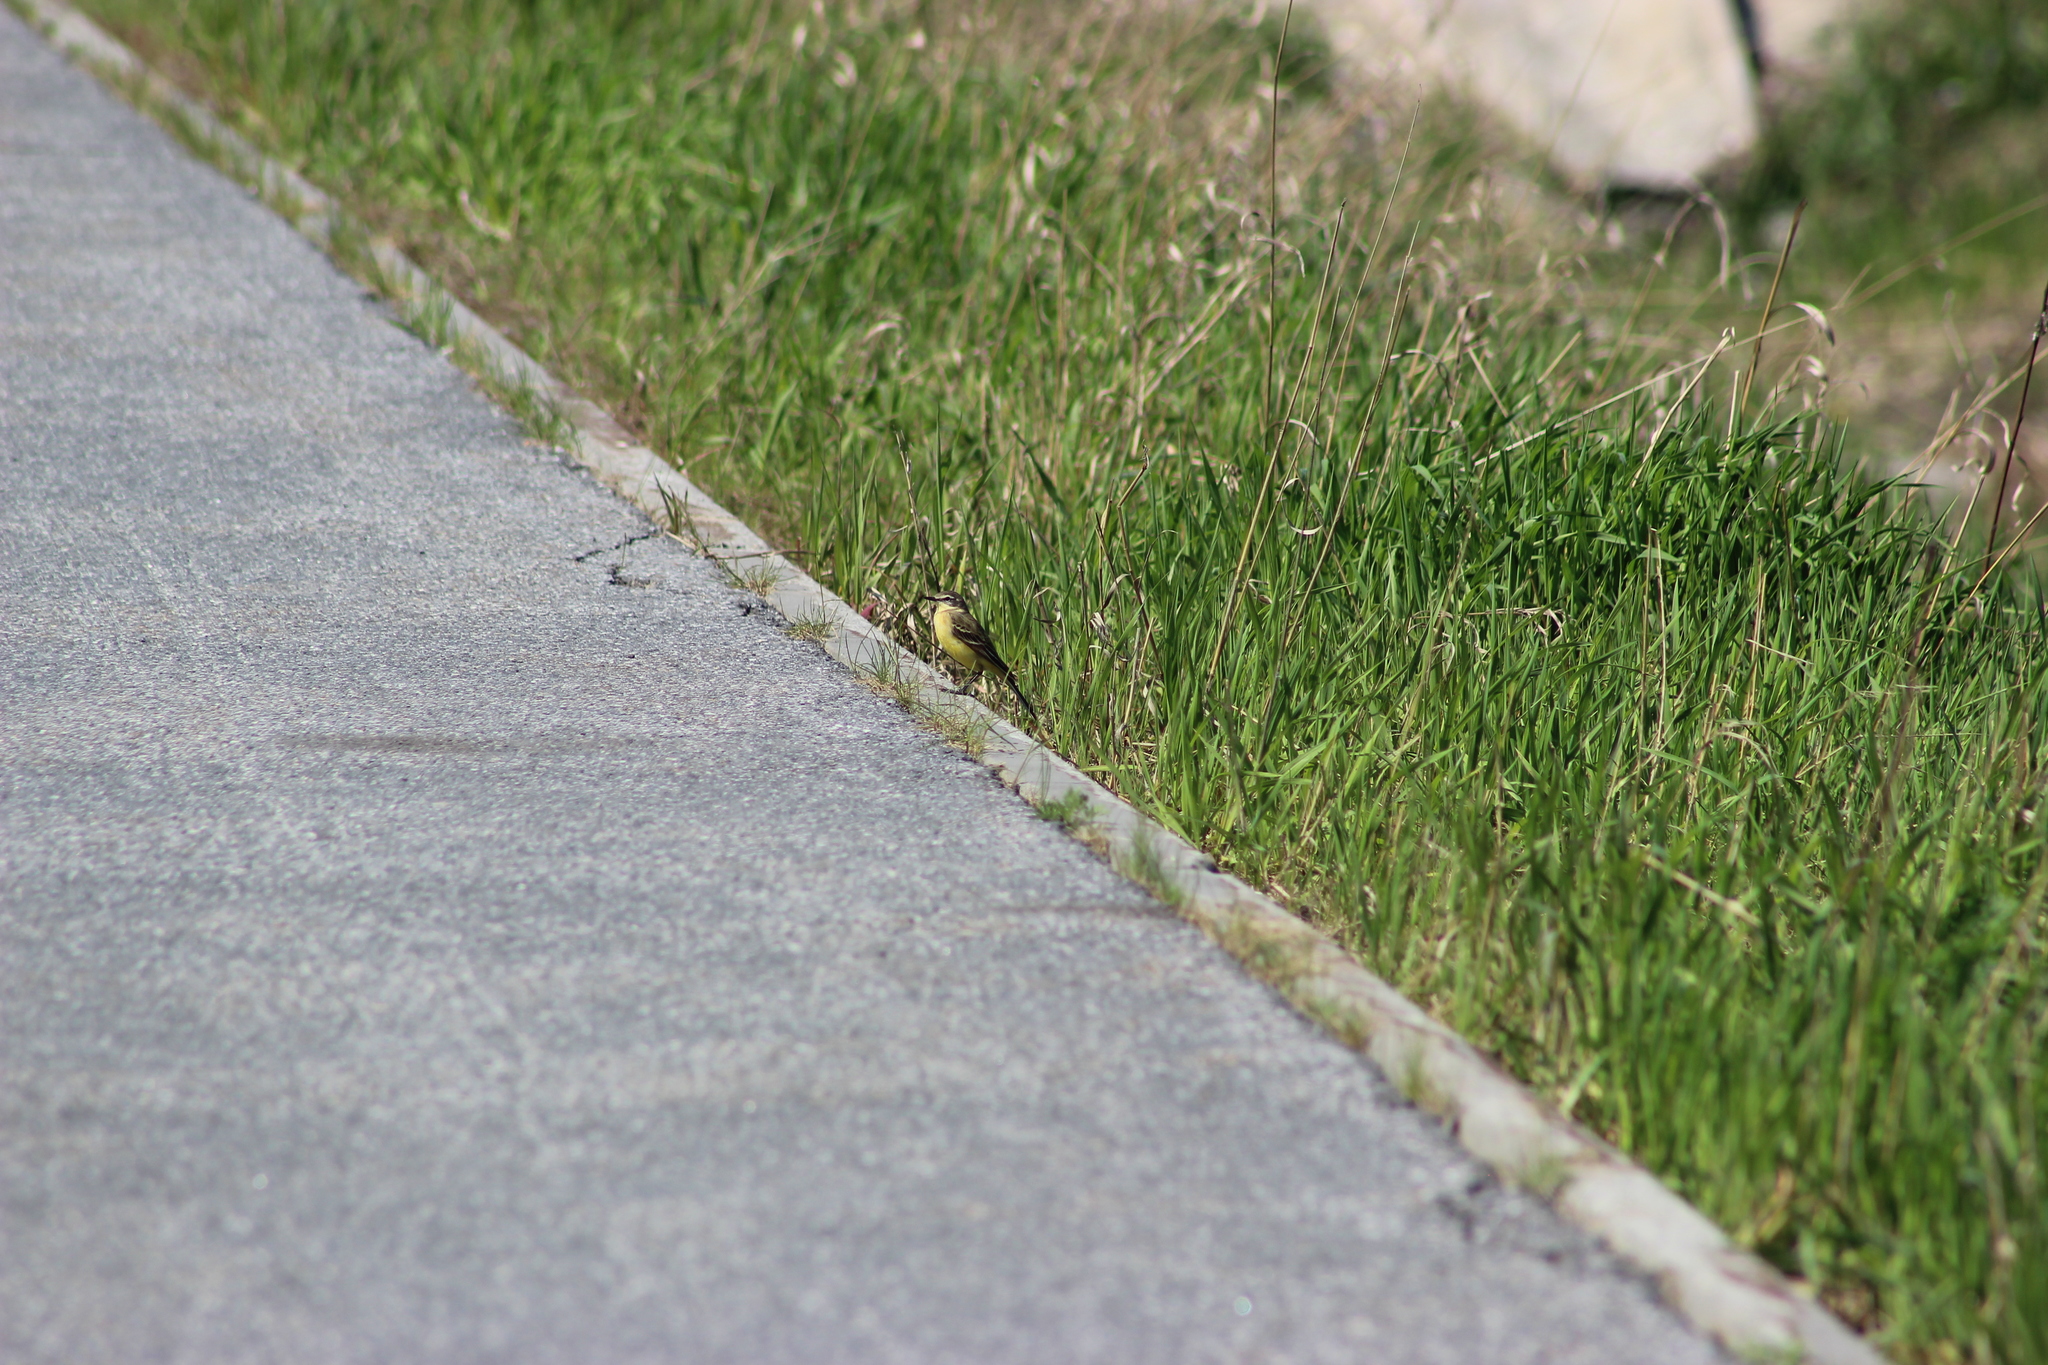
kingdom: Animalia
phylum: Chordata
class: Aves
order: Passeriformes
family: Motacillidae
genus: Motacilla
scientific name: Motacilla flava
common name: Western yellow wagtail
